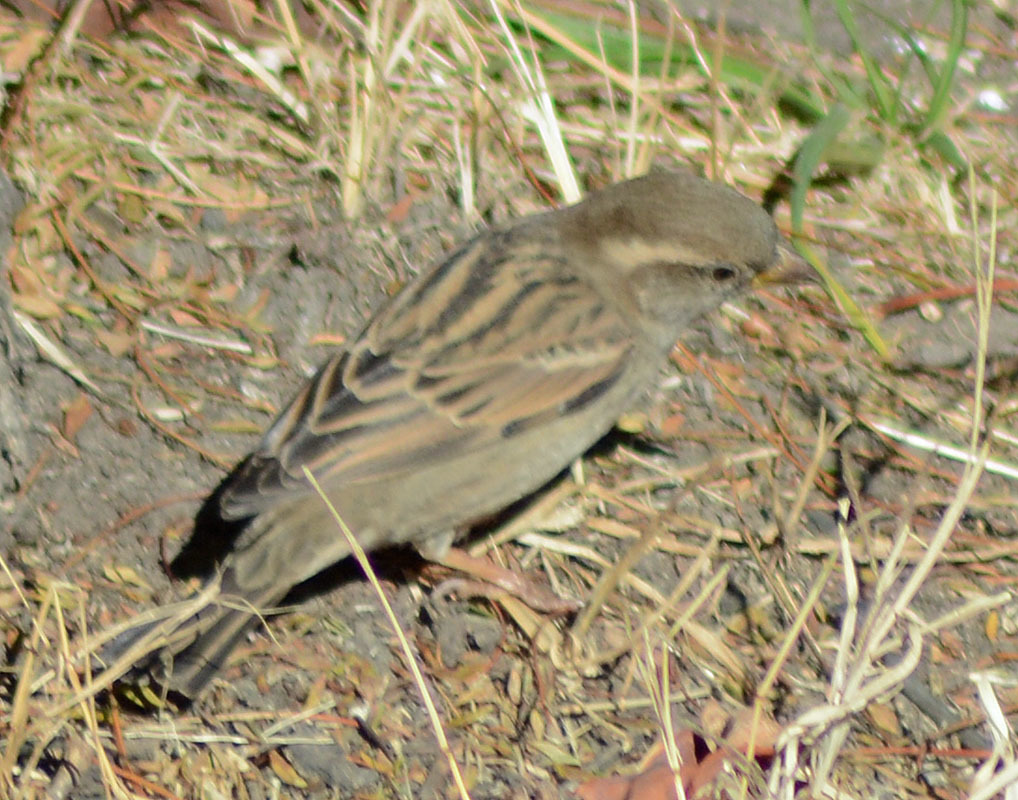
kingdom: Animalia
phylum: Chordata
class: Aves
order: Passeriformes
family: Passeridae
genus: Passer
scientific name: Passer domesticus
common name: House sparrow
